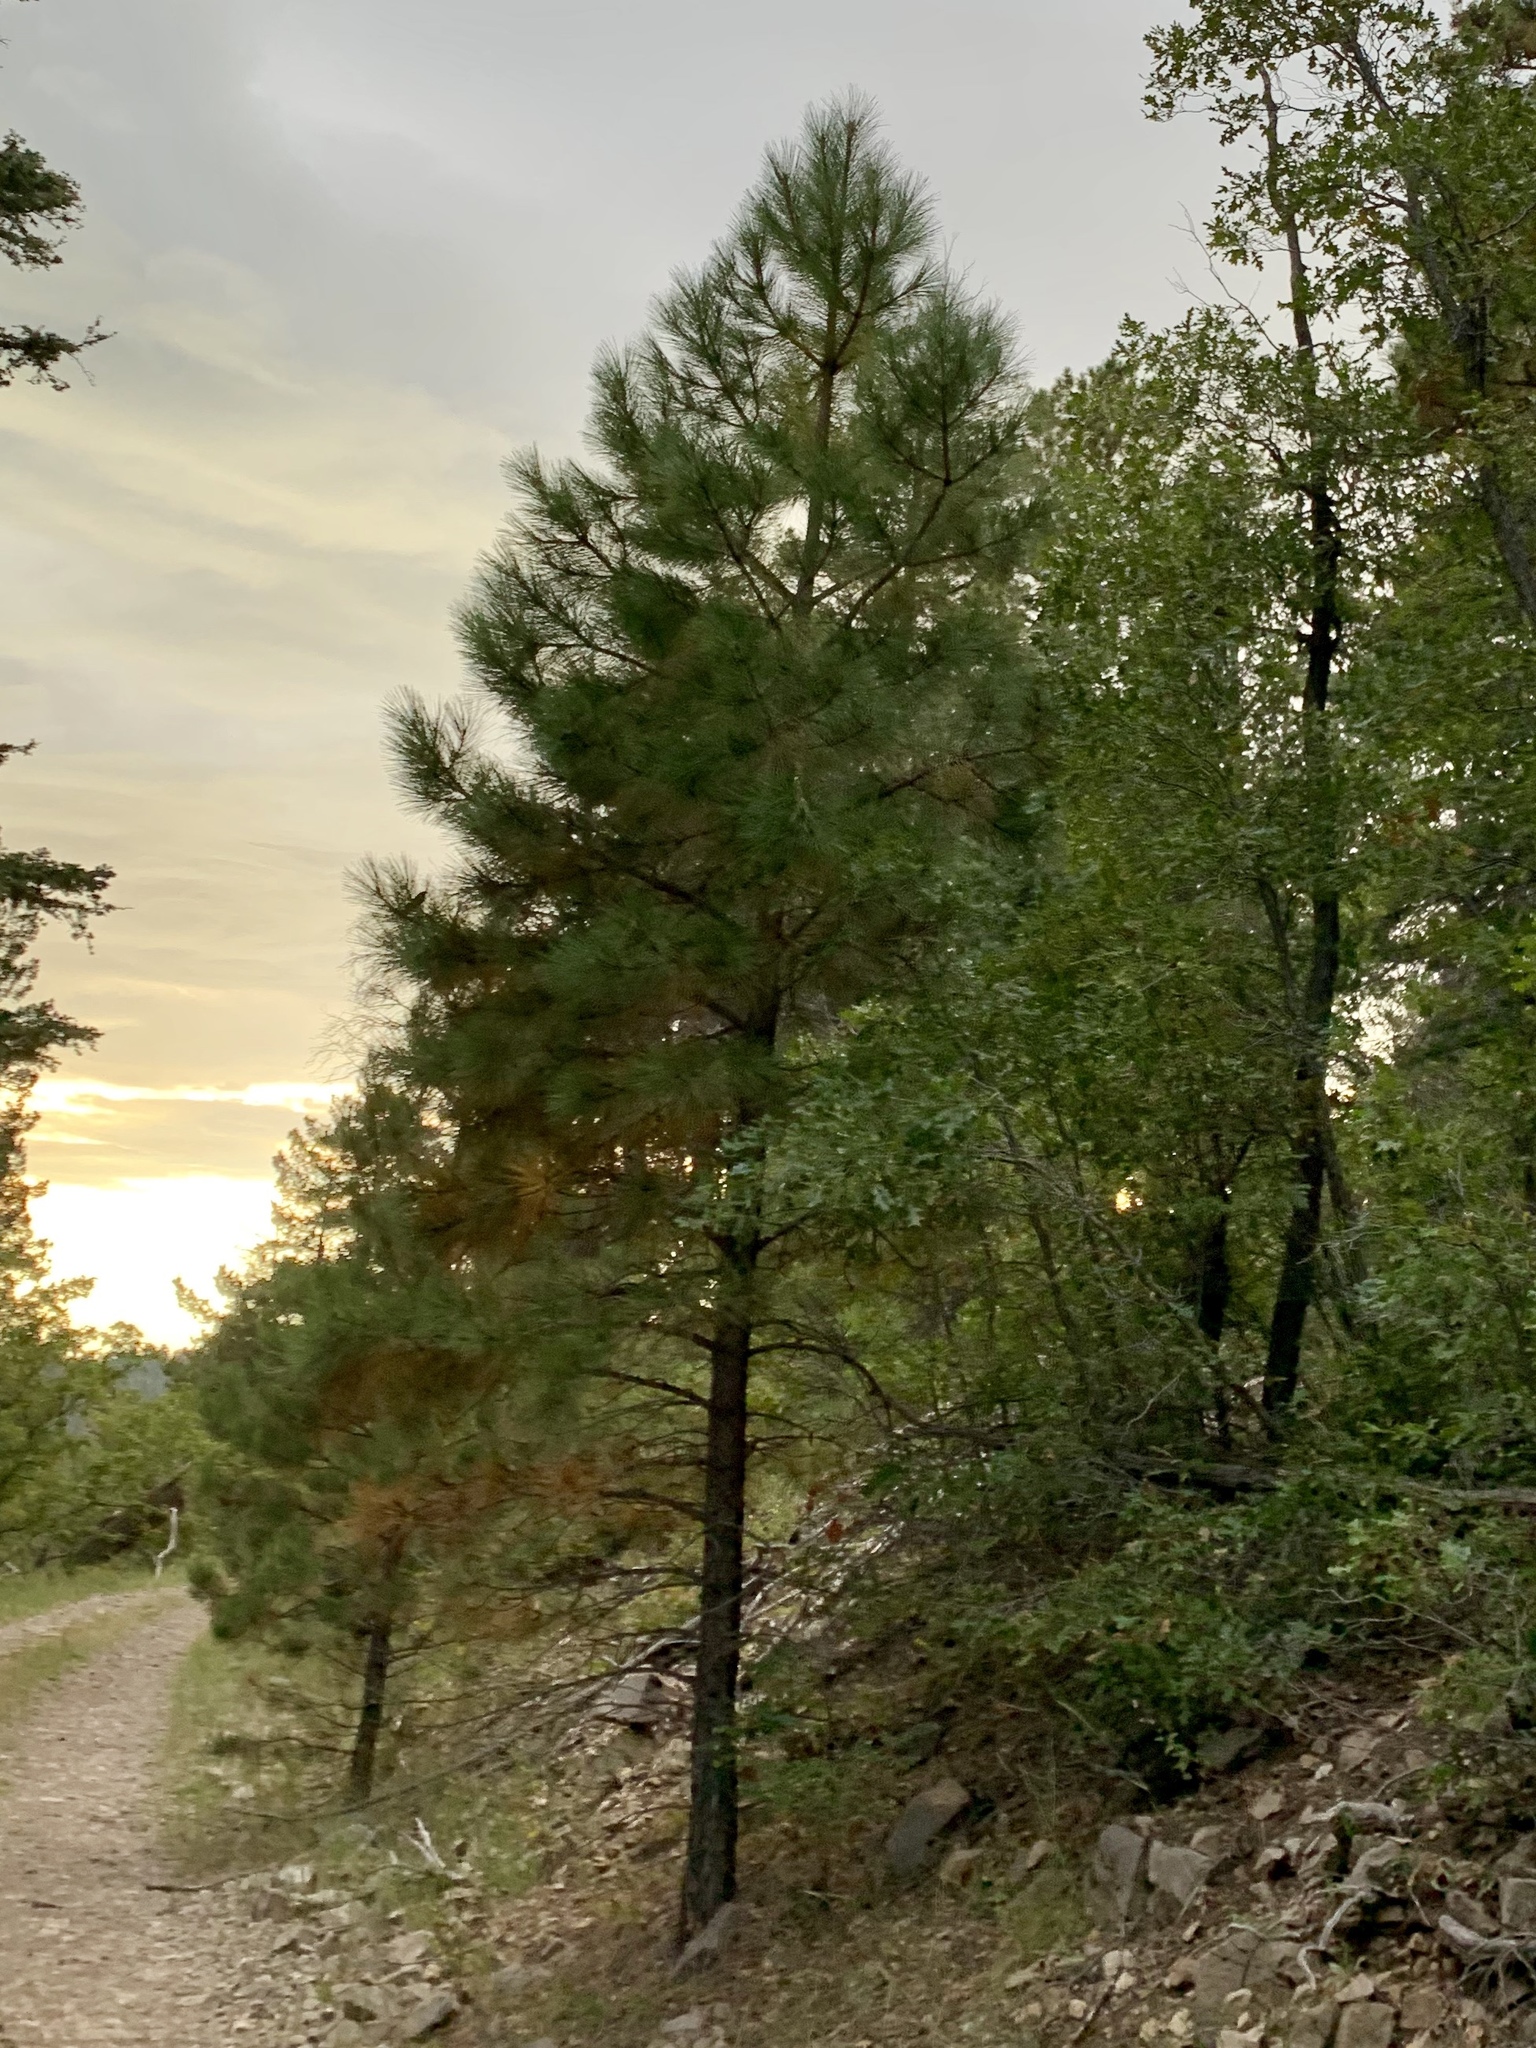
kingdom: Plantae
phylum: Tracheophyta
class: Pinopsida
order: Pinales
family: Pinaceae
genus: Pinus
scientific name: Pinus ponderosa
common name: Western yellow-pine
